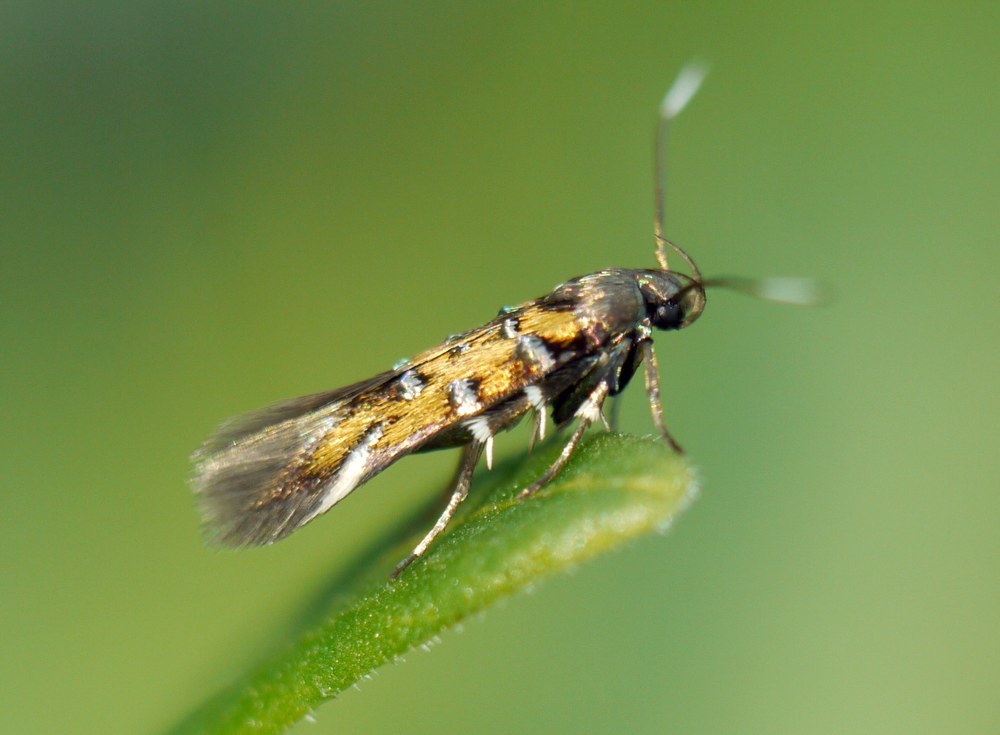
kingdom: Animalia
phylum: Arthropoda
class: Insecta
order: Lepidoptera
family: Cosmopterigidae
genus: Pancalia
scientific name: Pancalia leuwenhoekella
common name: Violet cosmet
